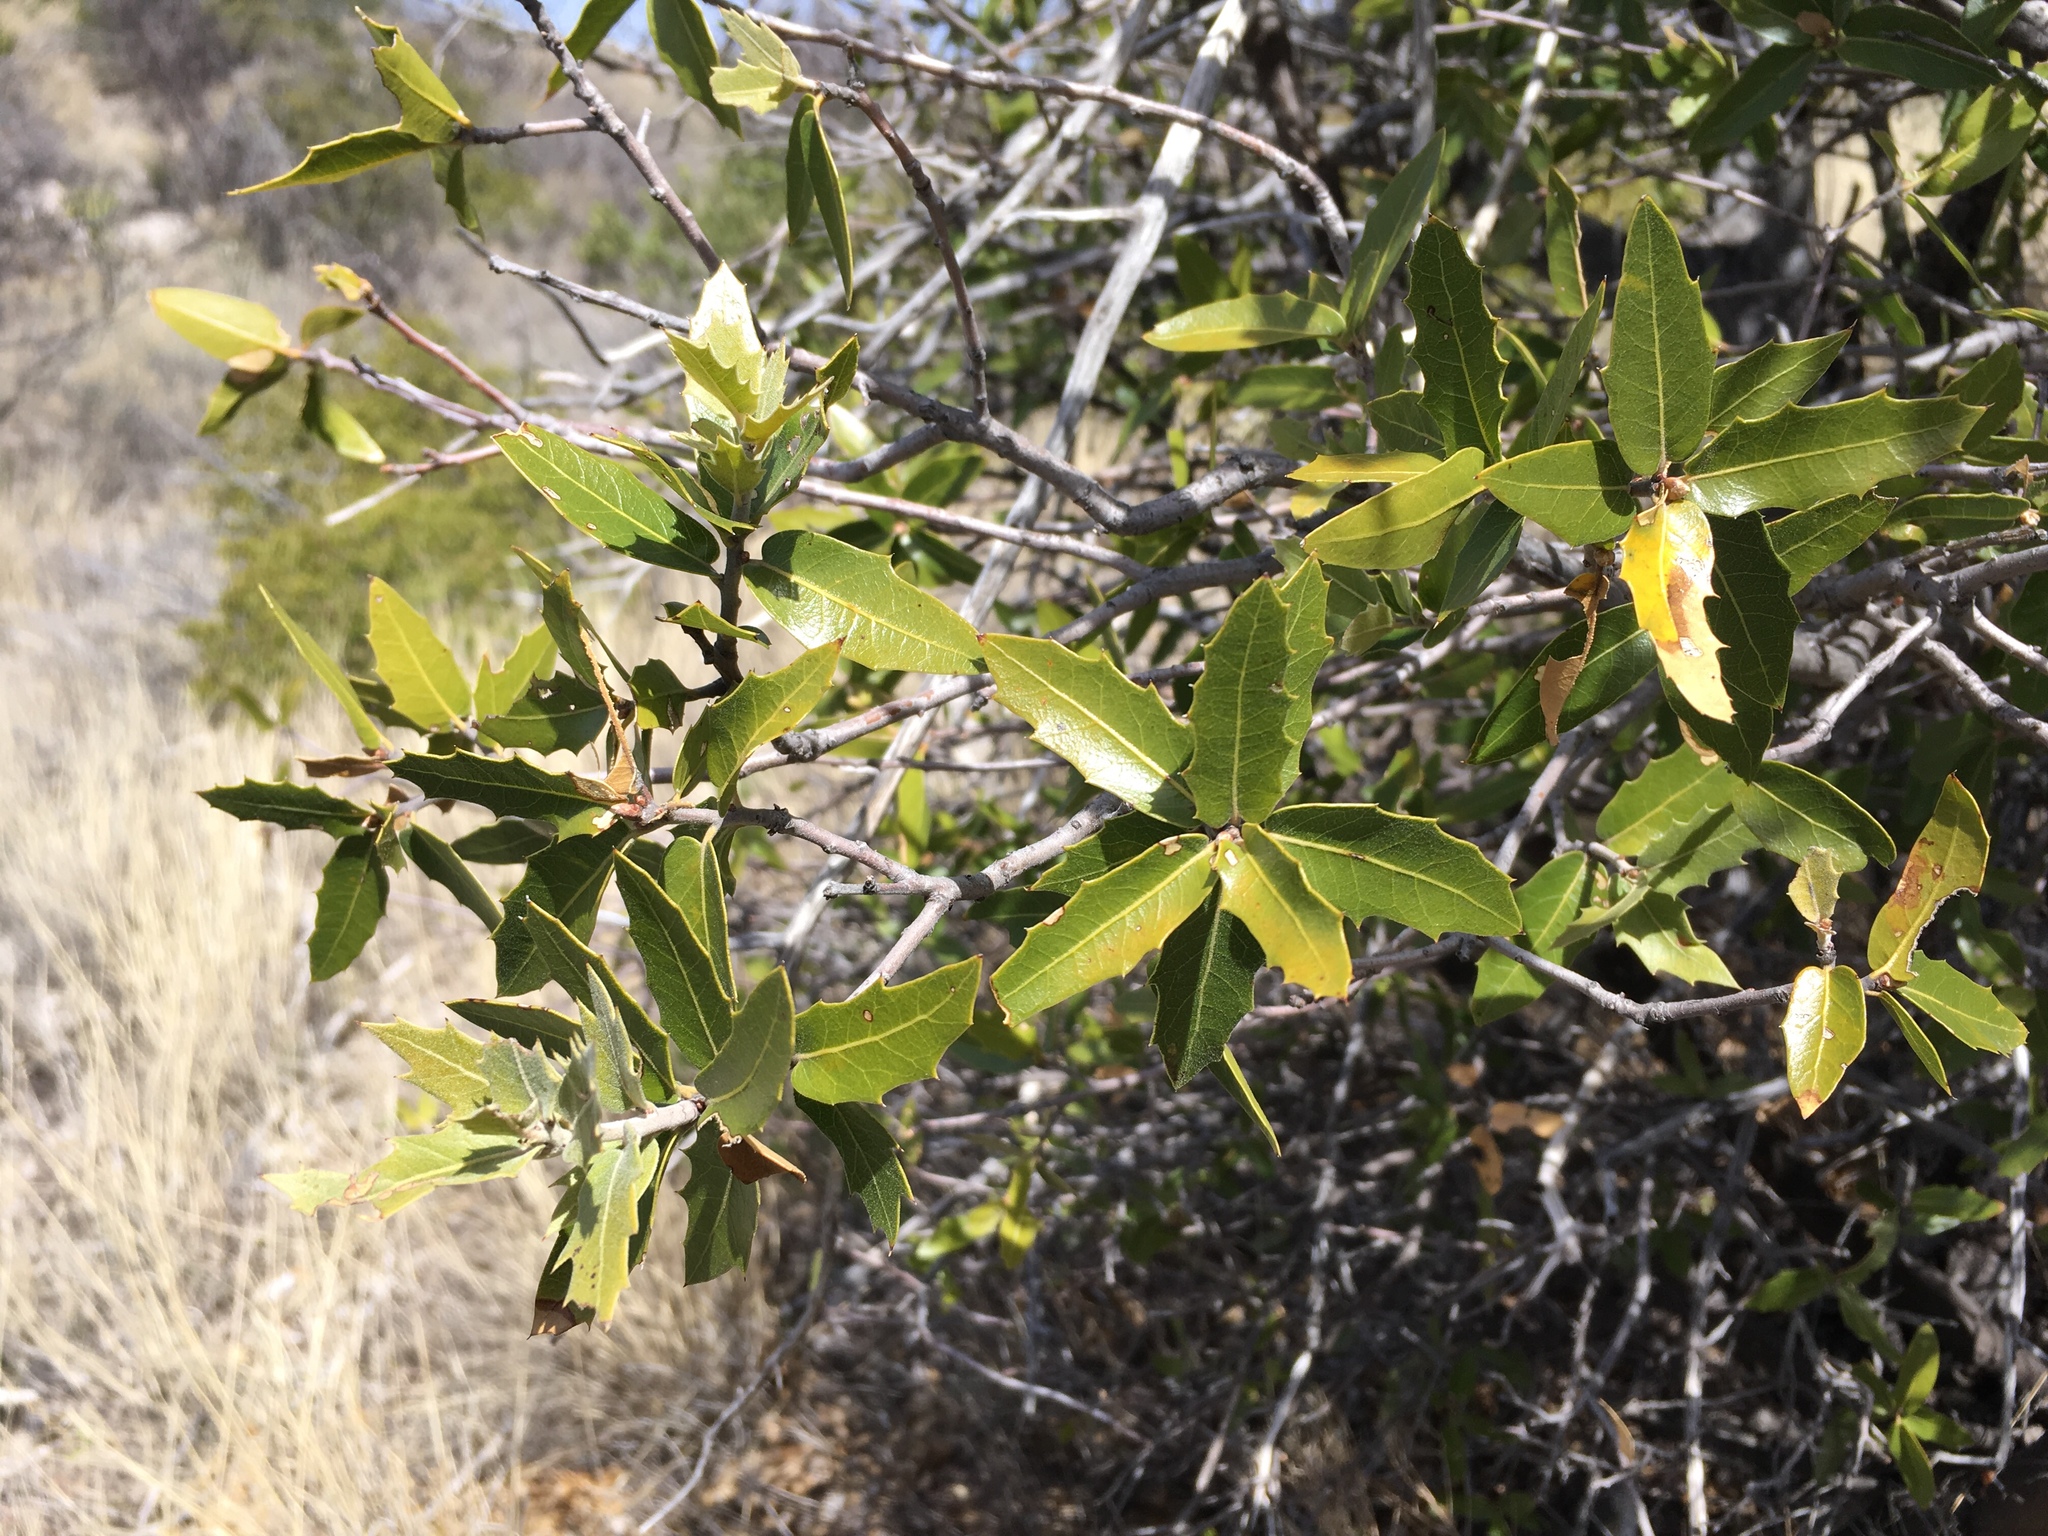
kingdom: Plantae
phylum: Tracheophyta
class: Magnoliopsida
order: Fagales
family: Fagaceae
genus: Quercus
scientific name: Quercus emoryi
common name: Emory oak
